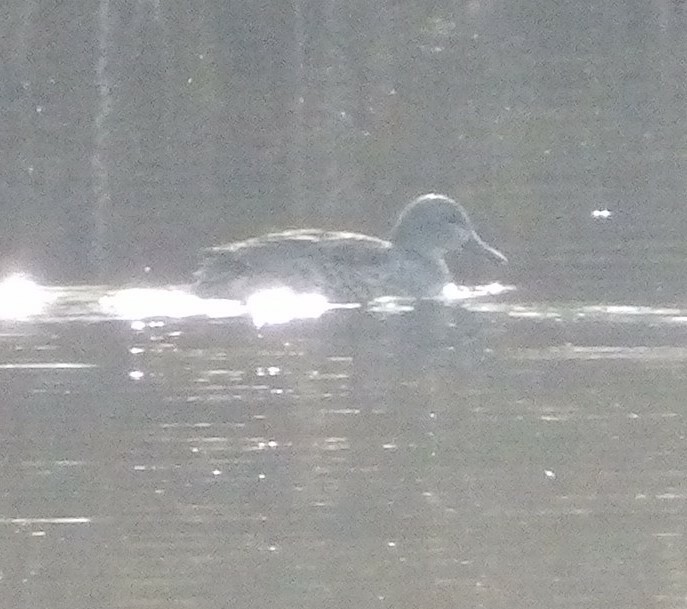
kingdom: Animalia
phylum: Chordata
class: Aves
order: Anseriformes
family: Anatidae
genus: Anas
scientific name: Anas crecca
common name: Eurasian teal
